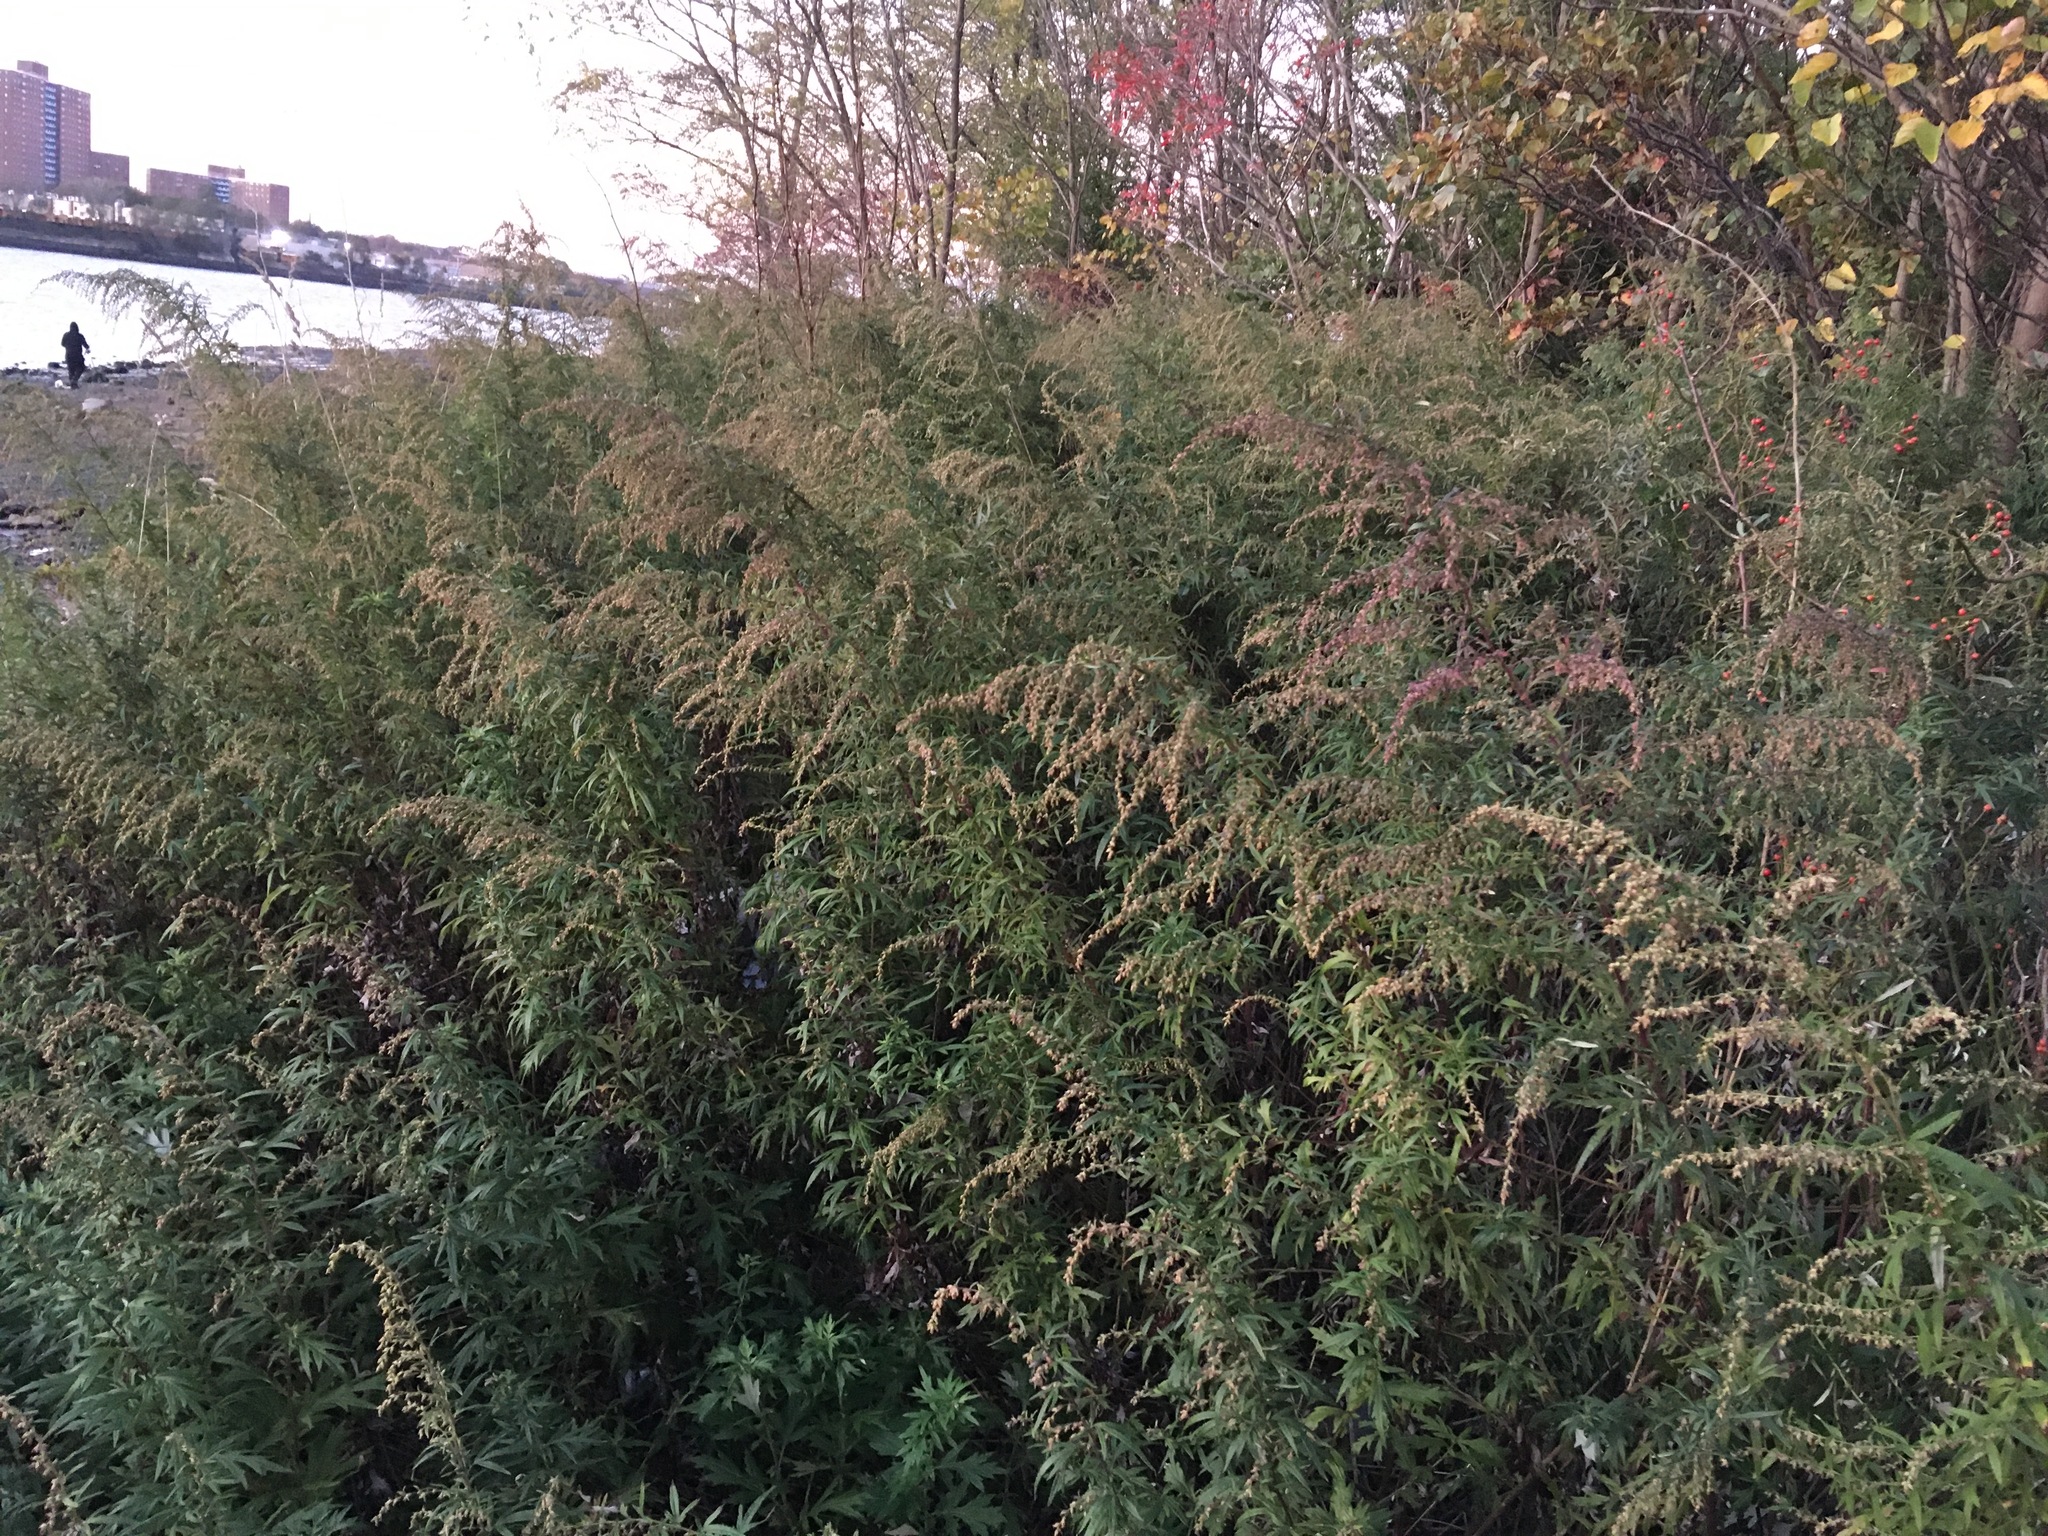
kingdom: Plantae
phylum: Tracheophyta
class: Magnoliopsida
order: Asterales
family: Asteraceae
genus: Artemisia
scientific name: Artemisia vulgaris
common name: Mugwort
